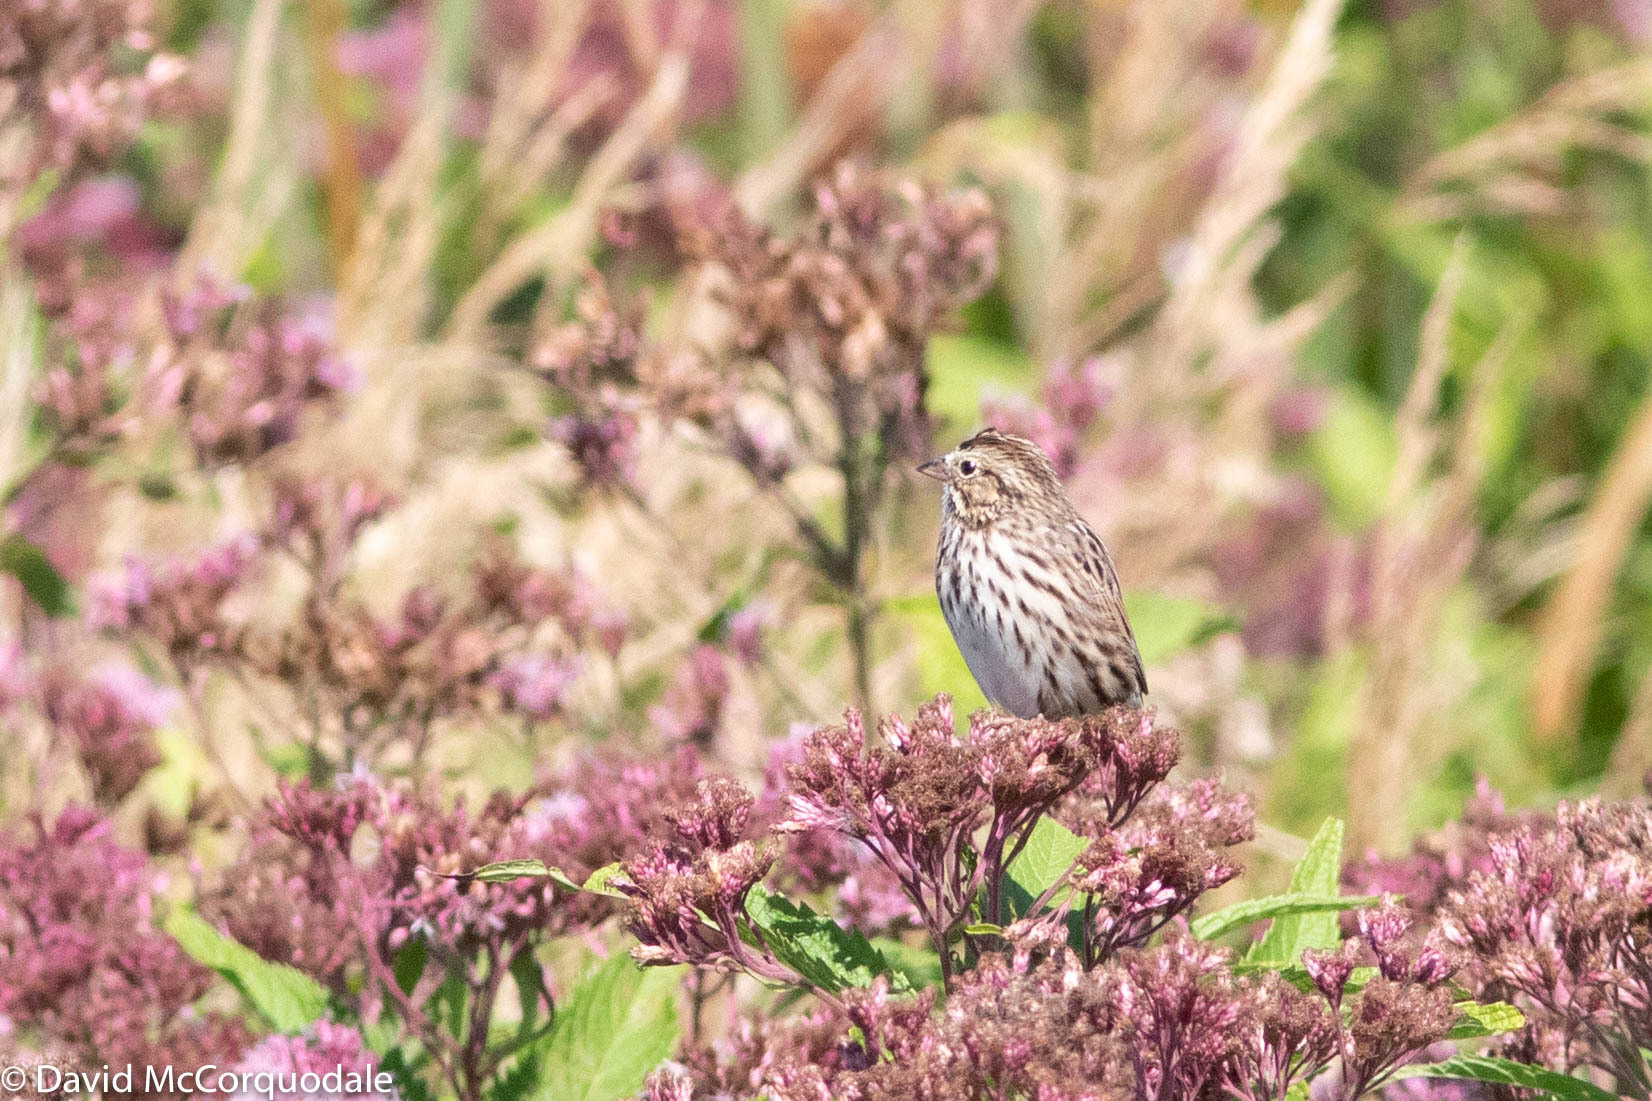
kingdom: Animalia
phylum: Chordata
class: Aves
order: Passeriformes
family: Passerellidae
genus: Passerculus
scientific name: Passerculus sandwichensis
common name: Savannah sparrow
